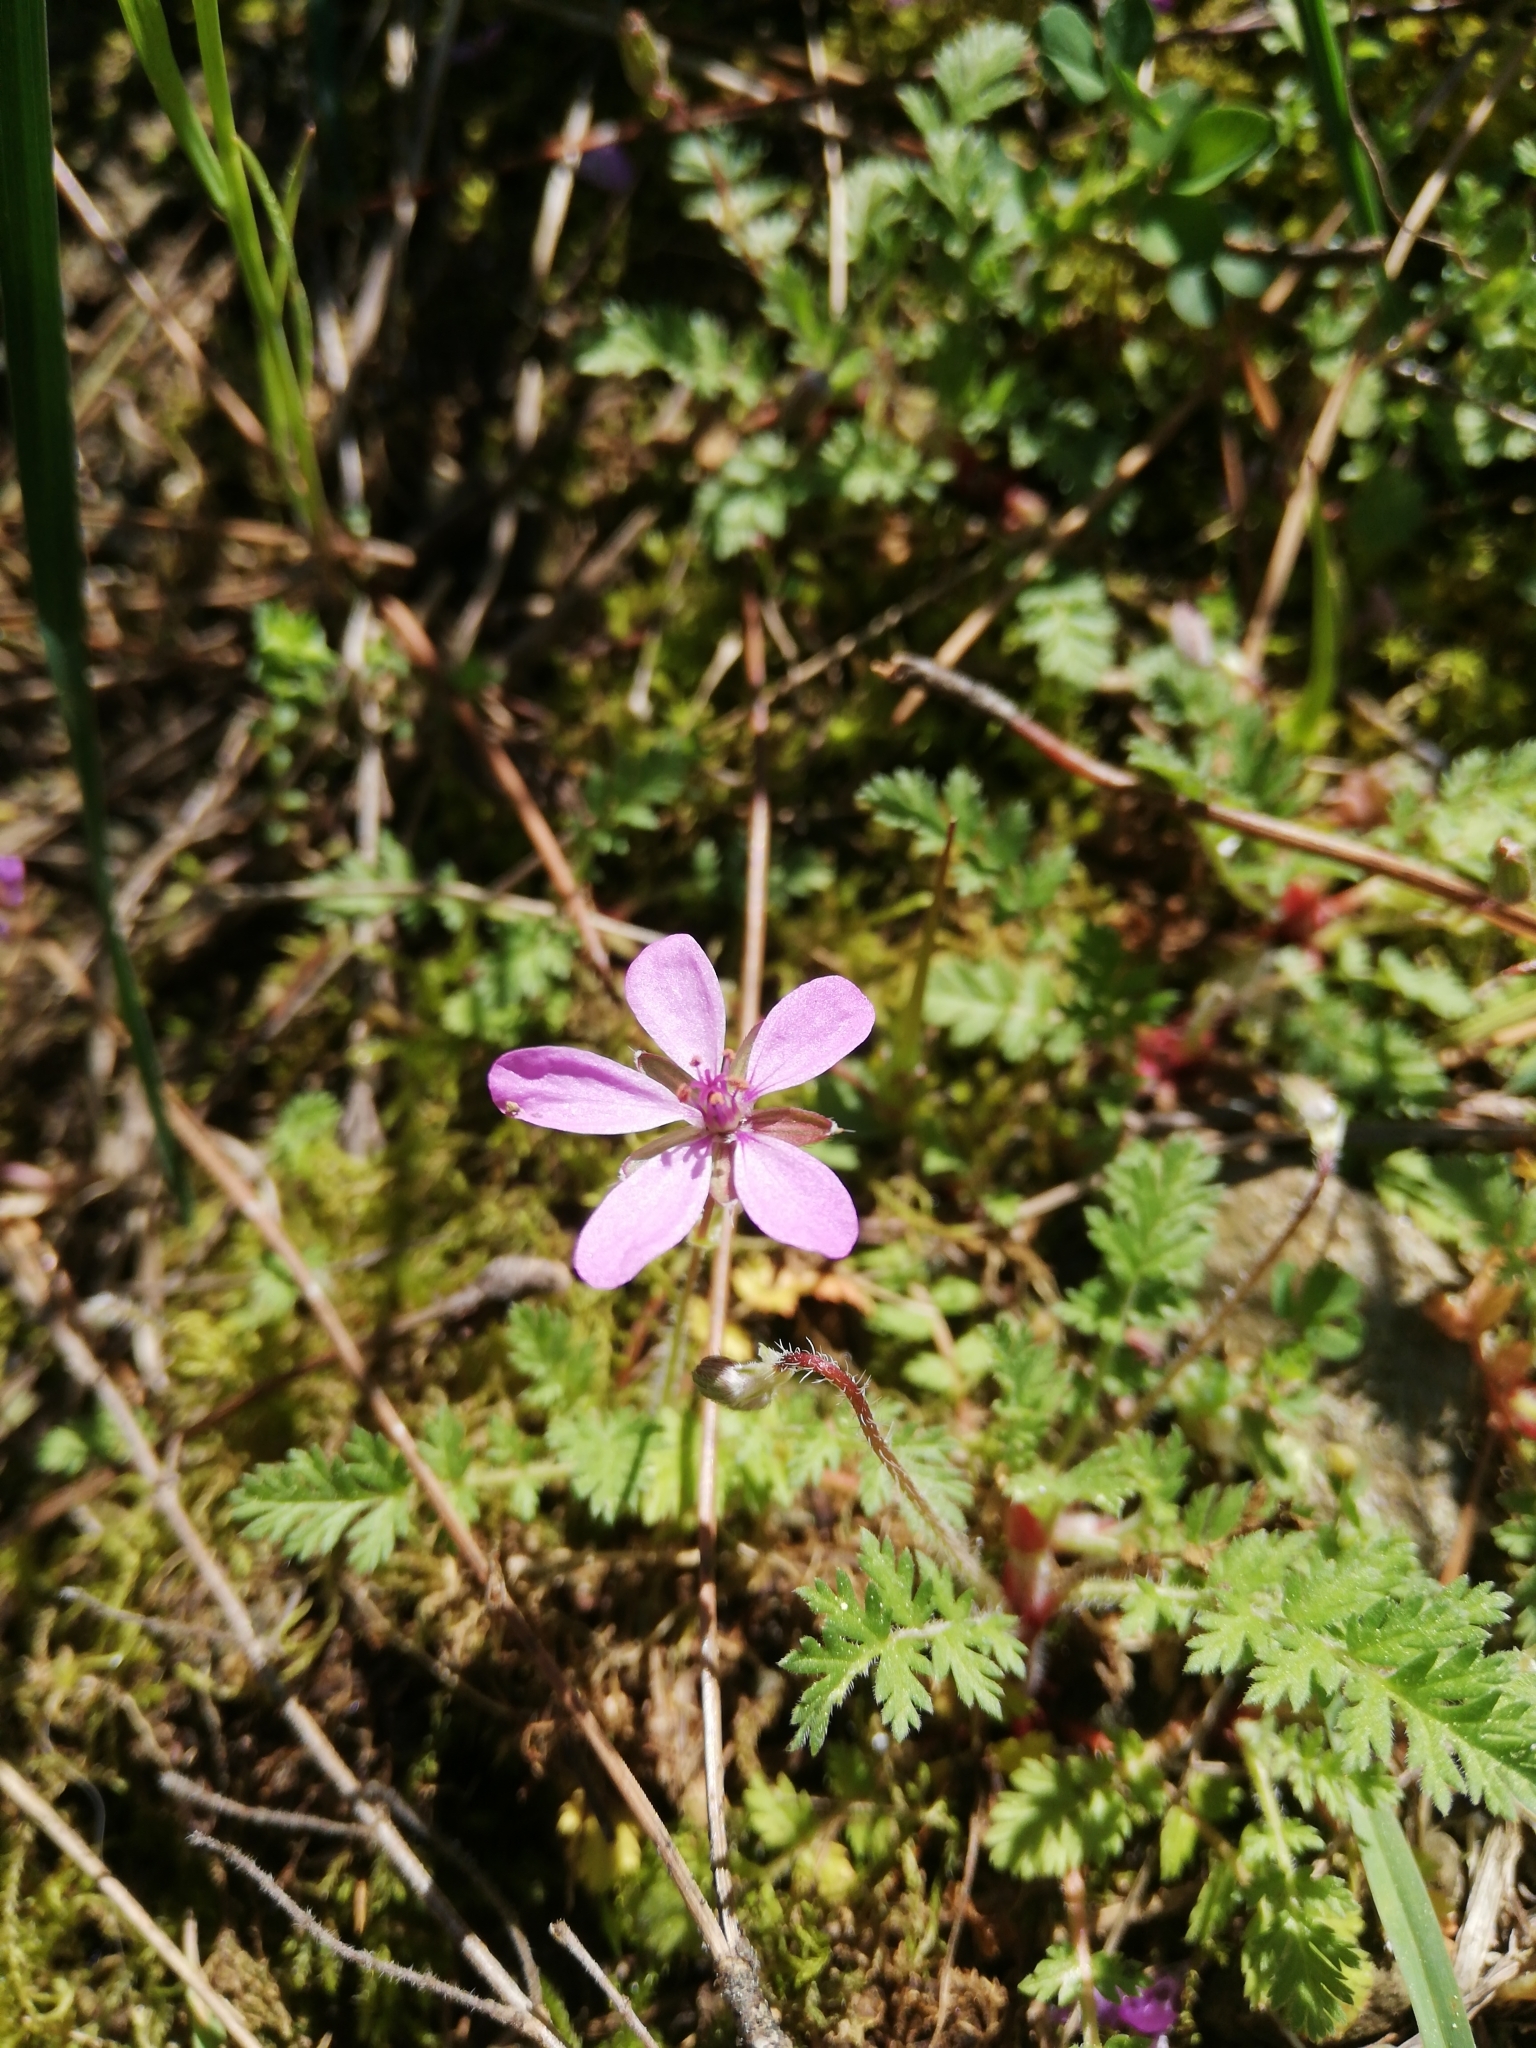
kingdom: Plantae
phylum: Tracheophyta
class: Magnoliopsida
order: Geraniales
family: Geraniaceae
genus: Erodium
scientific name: Erodium cicutarium
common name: Common stork's-bill
